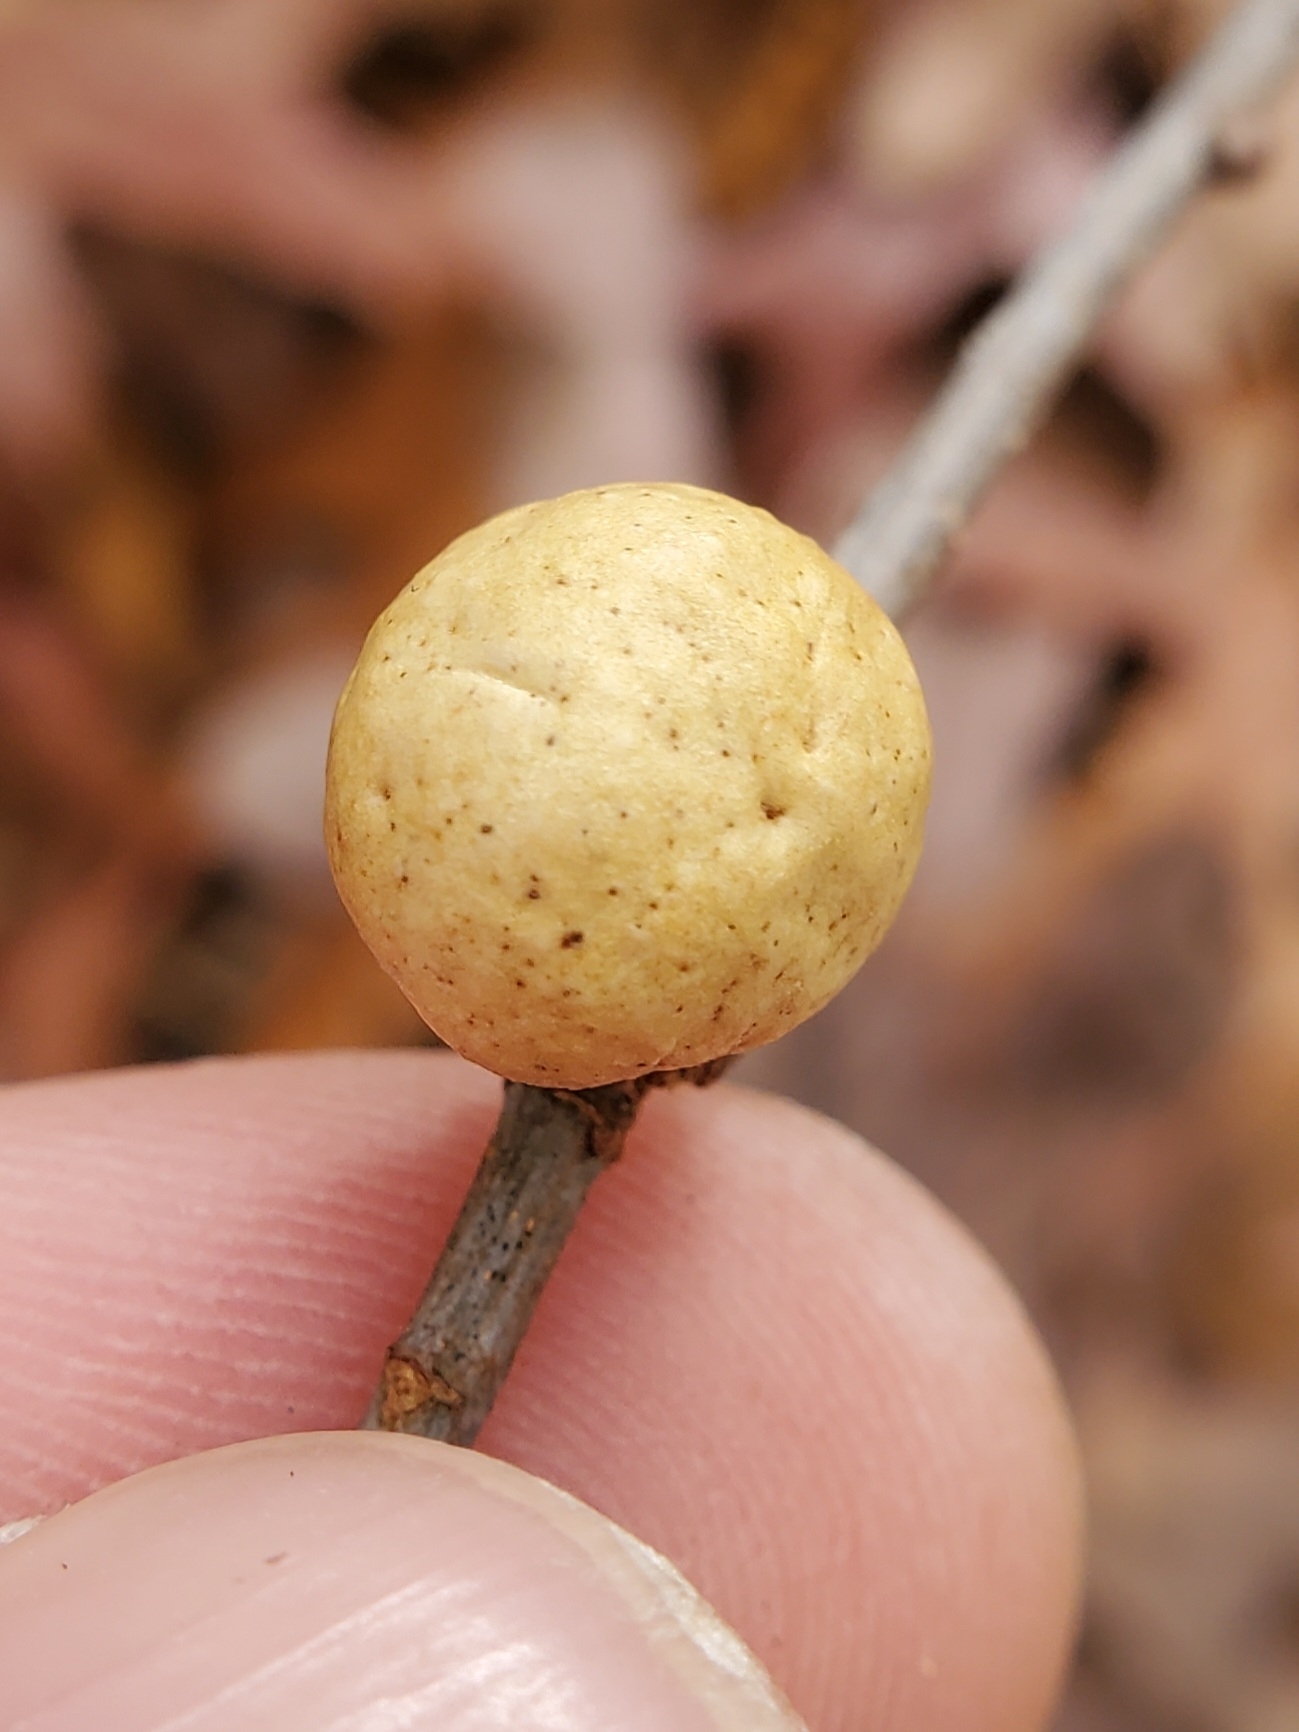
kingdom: Animalia
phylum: Arthropoda
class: Insecta
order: Hymenoptera
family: Cynipidae
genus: Disholcaspis
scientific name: Disholcaspis quercusglobulus
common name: Round bullet gall wasp
